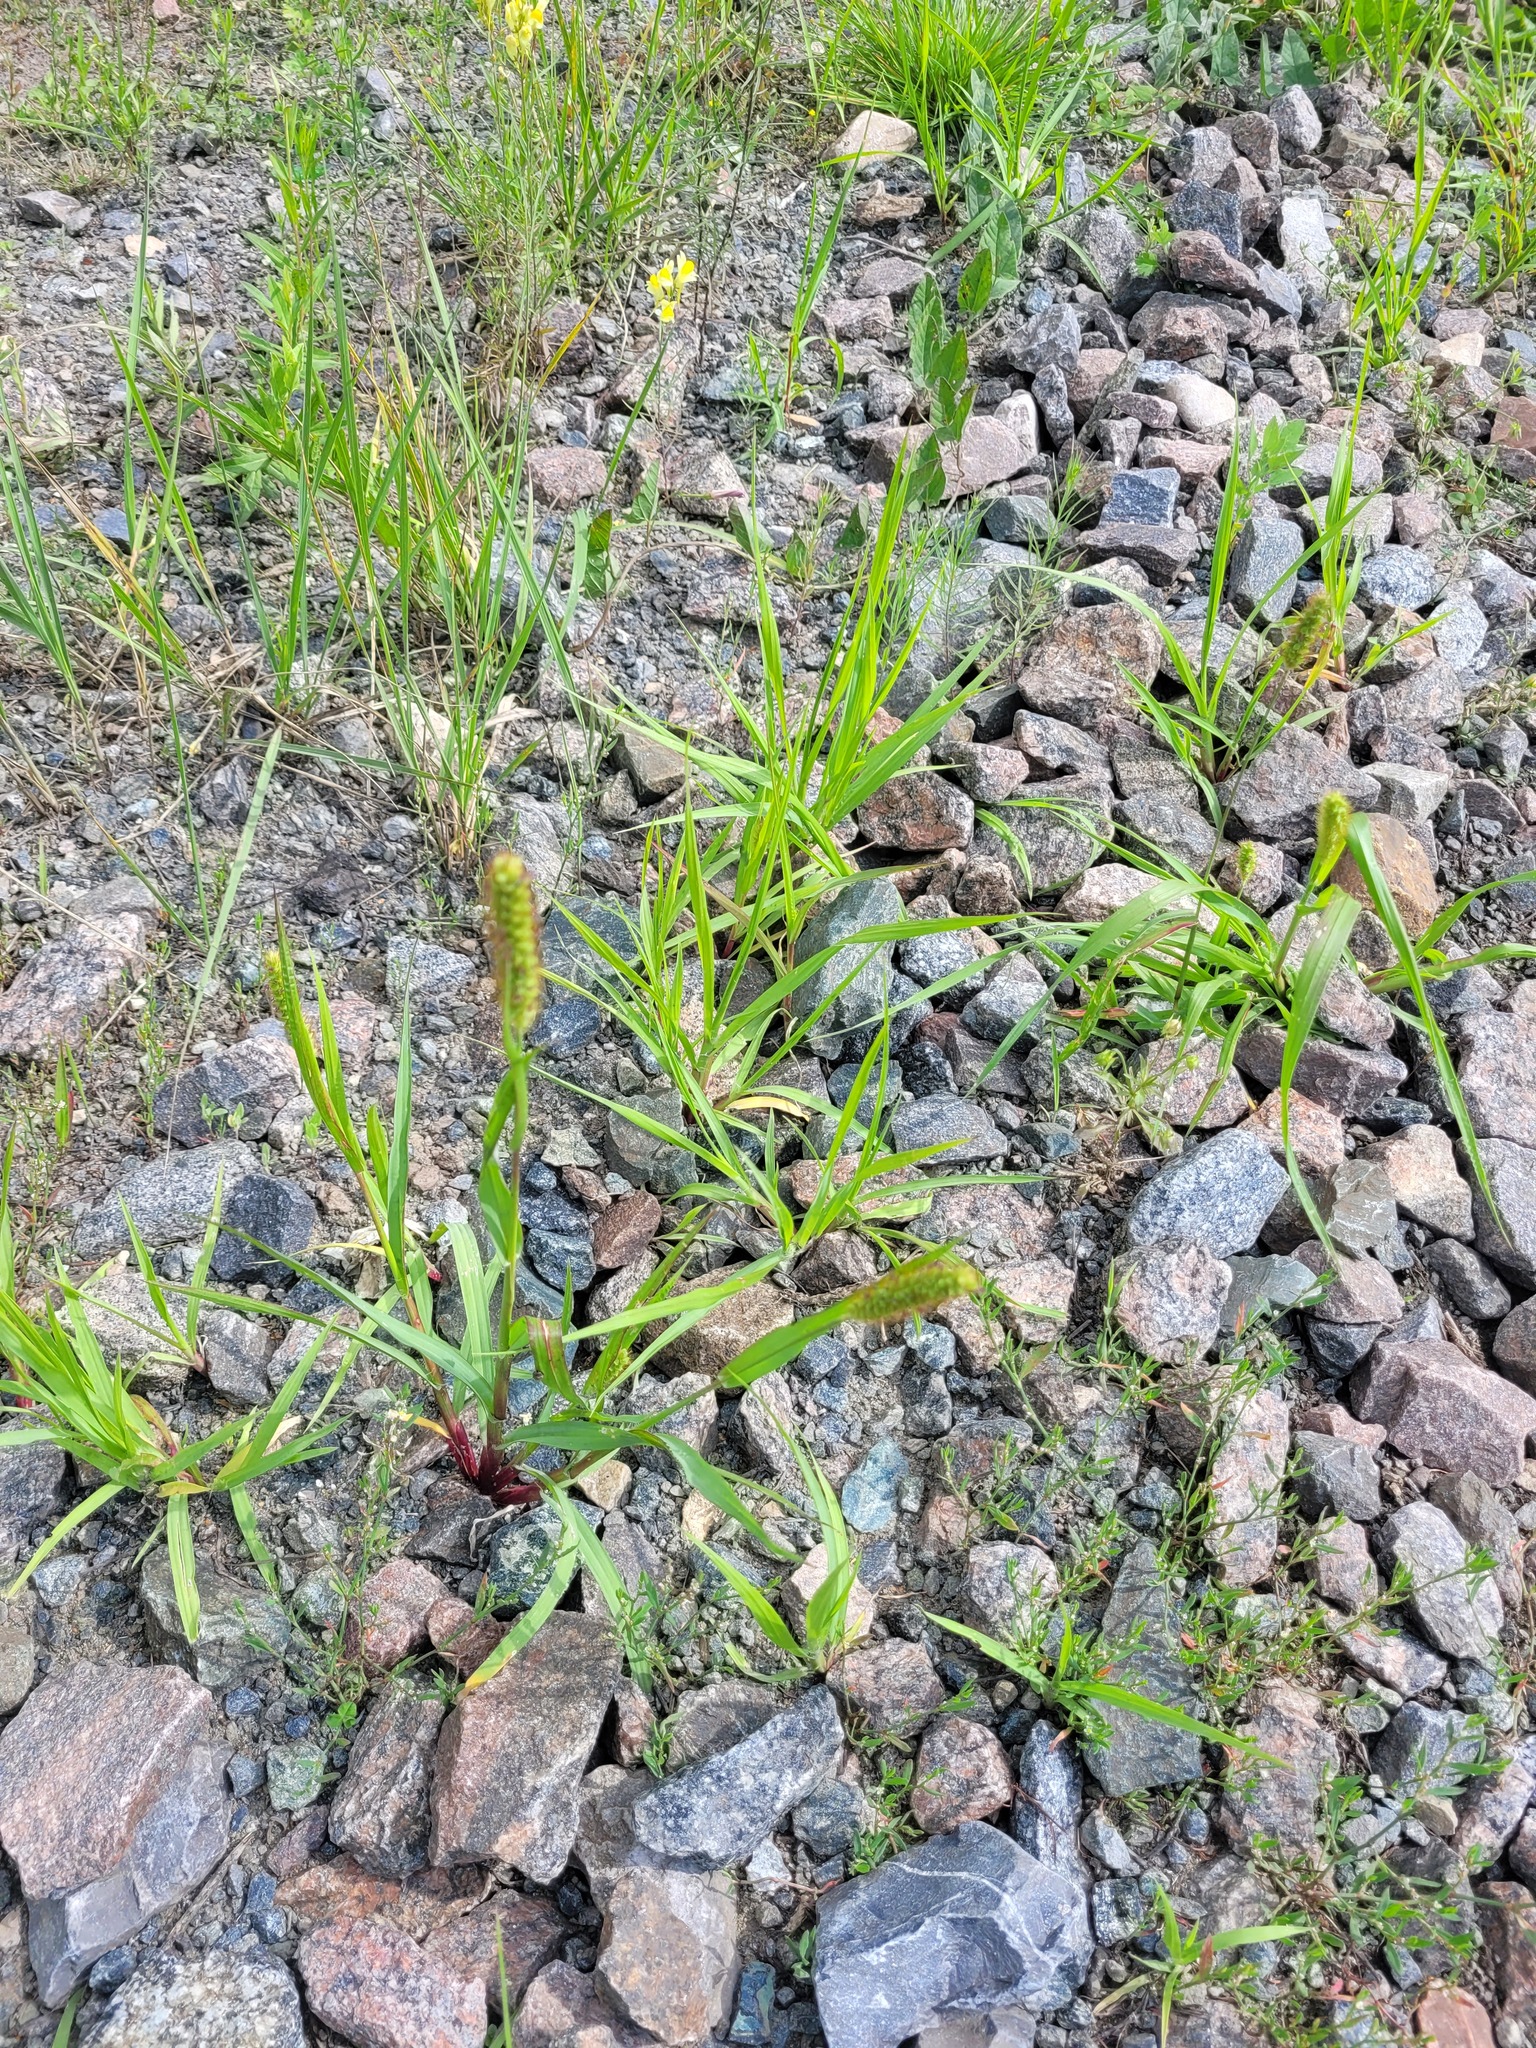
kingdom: Plantae
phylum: Tracheophyta
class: Liliopsida
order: Poales
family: Poaceae
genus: Setaria
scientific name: Setaria pumila
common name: Yellow bristle-grass
